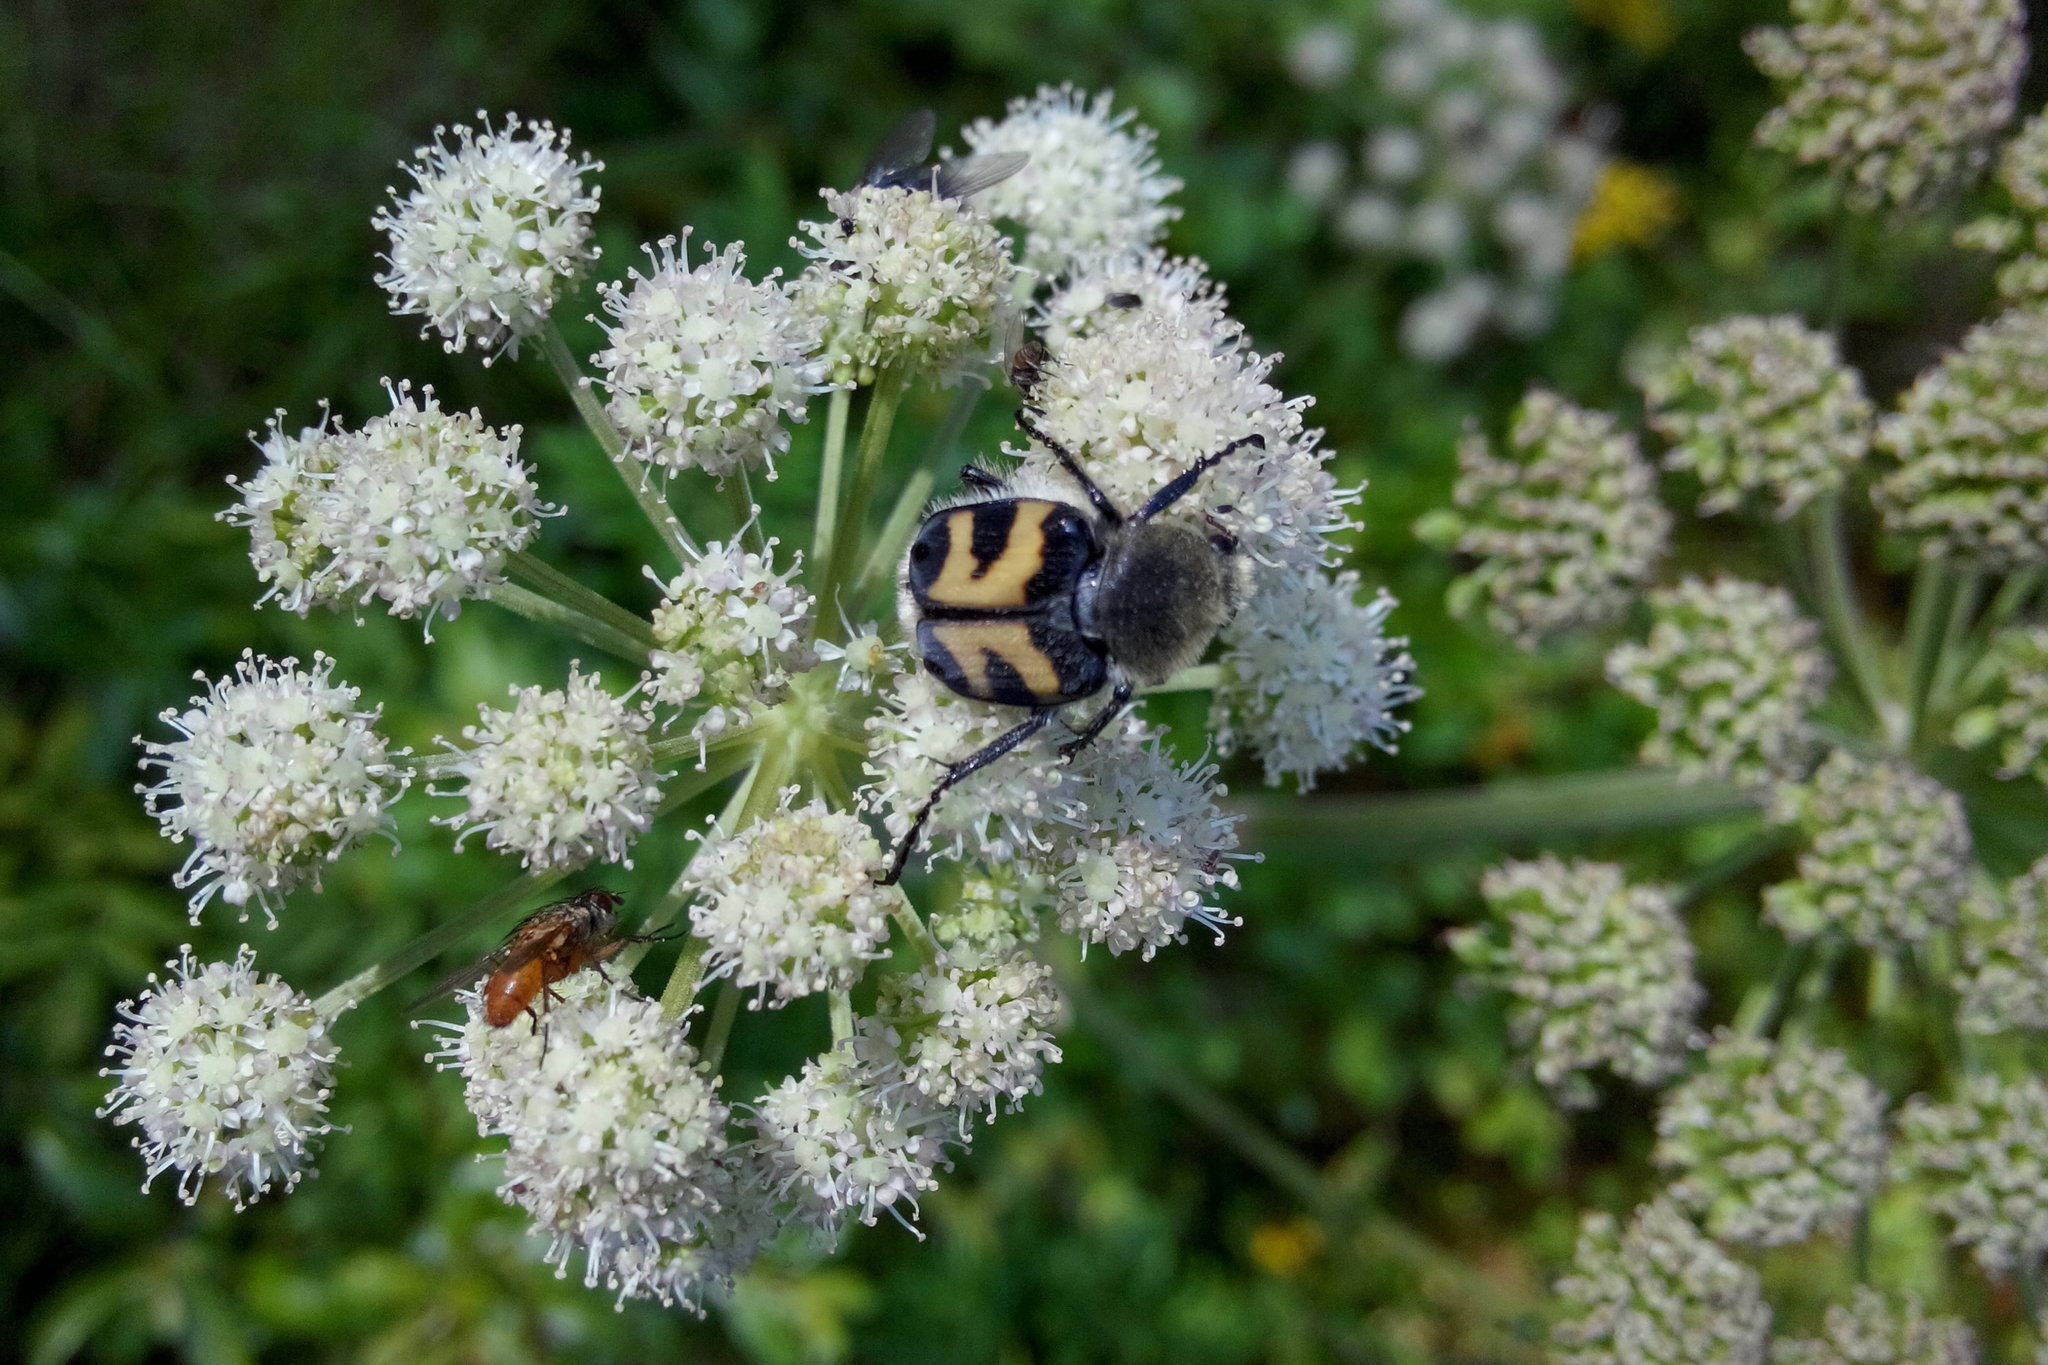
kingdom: Animalia
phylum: Arthropoda
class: Insecta
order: Coleoptera
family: Scarabaeidae
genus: Trichius
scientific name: Trichius fasciatus
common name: Bee beetle
